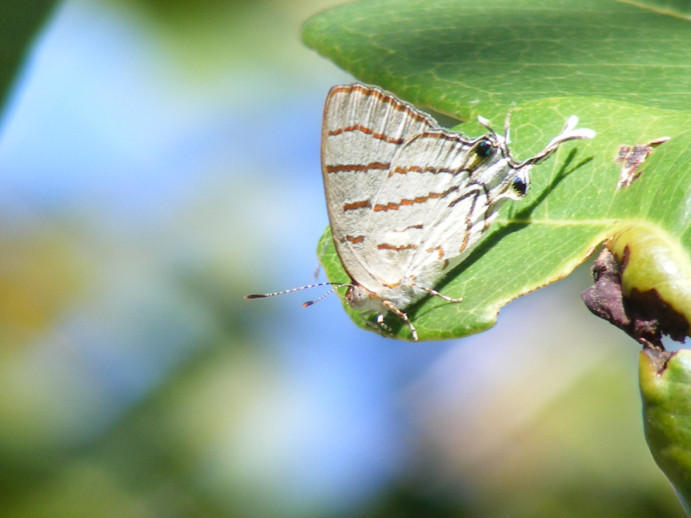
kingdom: Animalia
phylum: Arthropoda
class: Insecta
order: Lepidoptera
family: Lycaenidae
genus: Hemiolaus
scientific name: Hemiolaus caeculus
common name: Azure hairstreak
